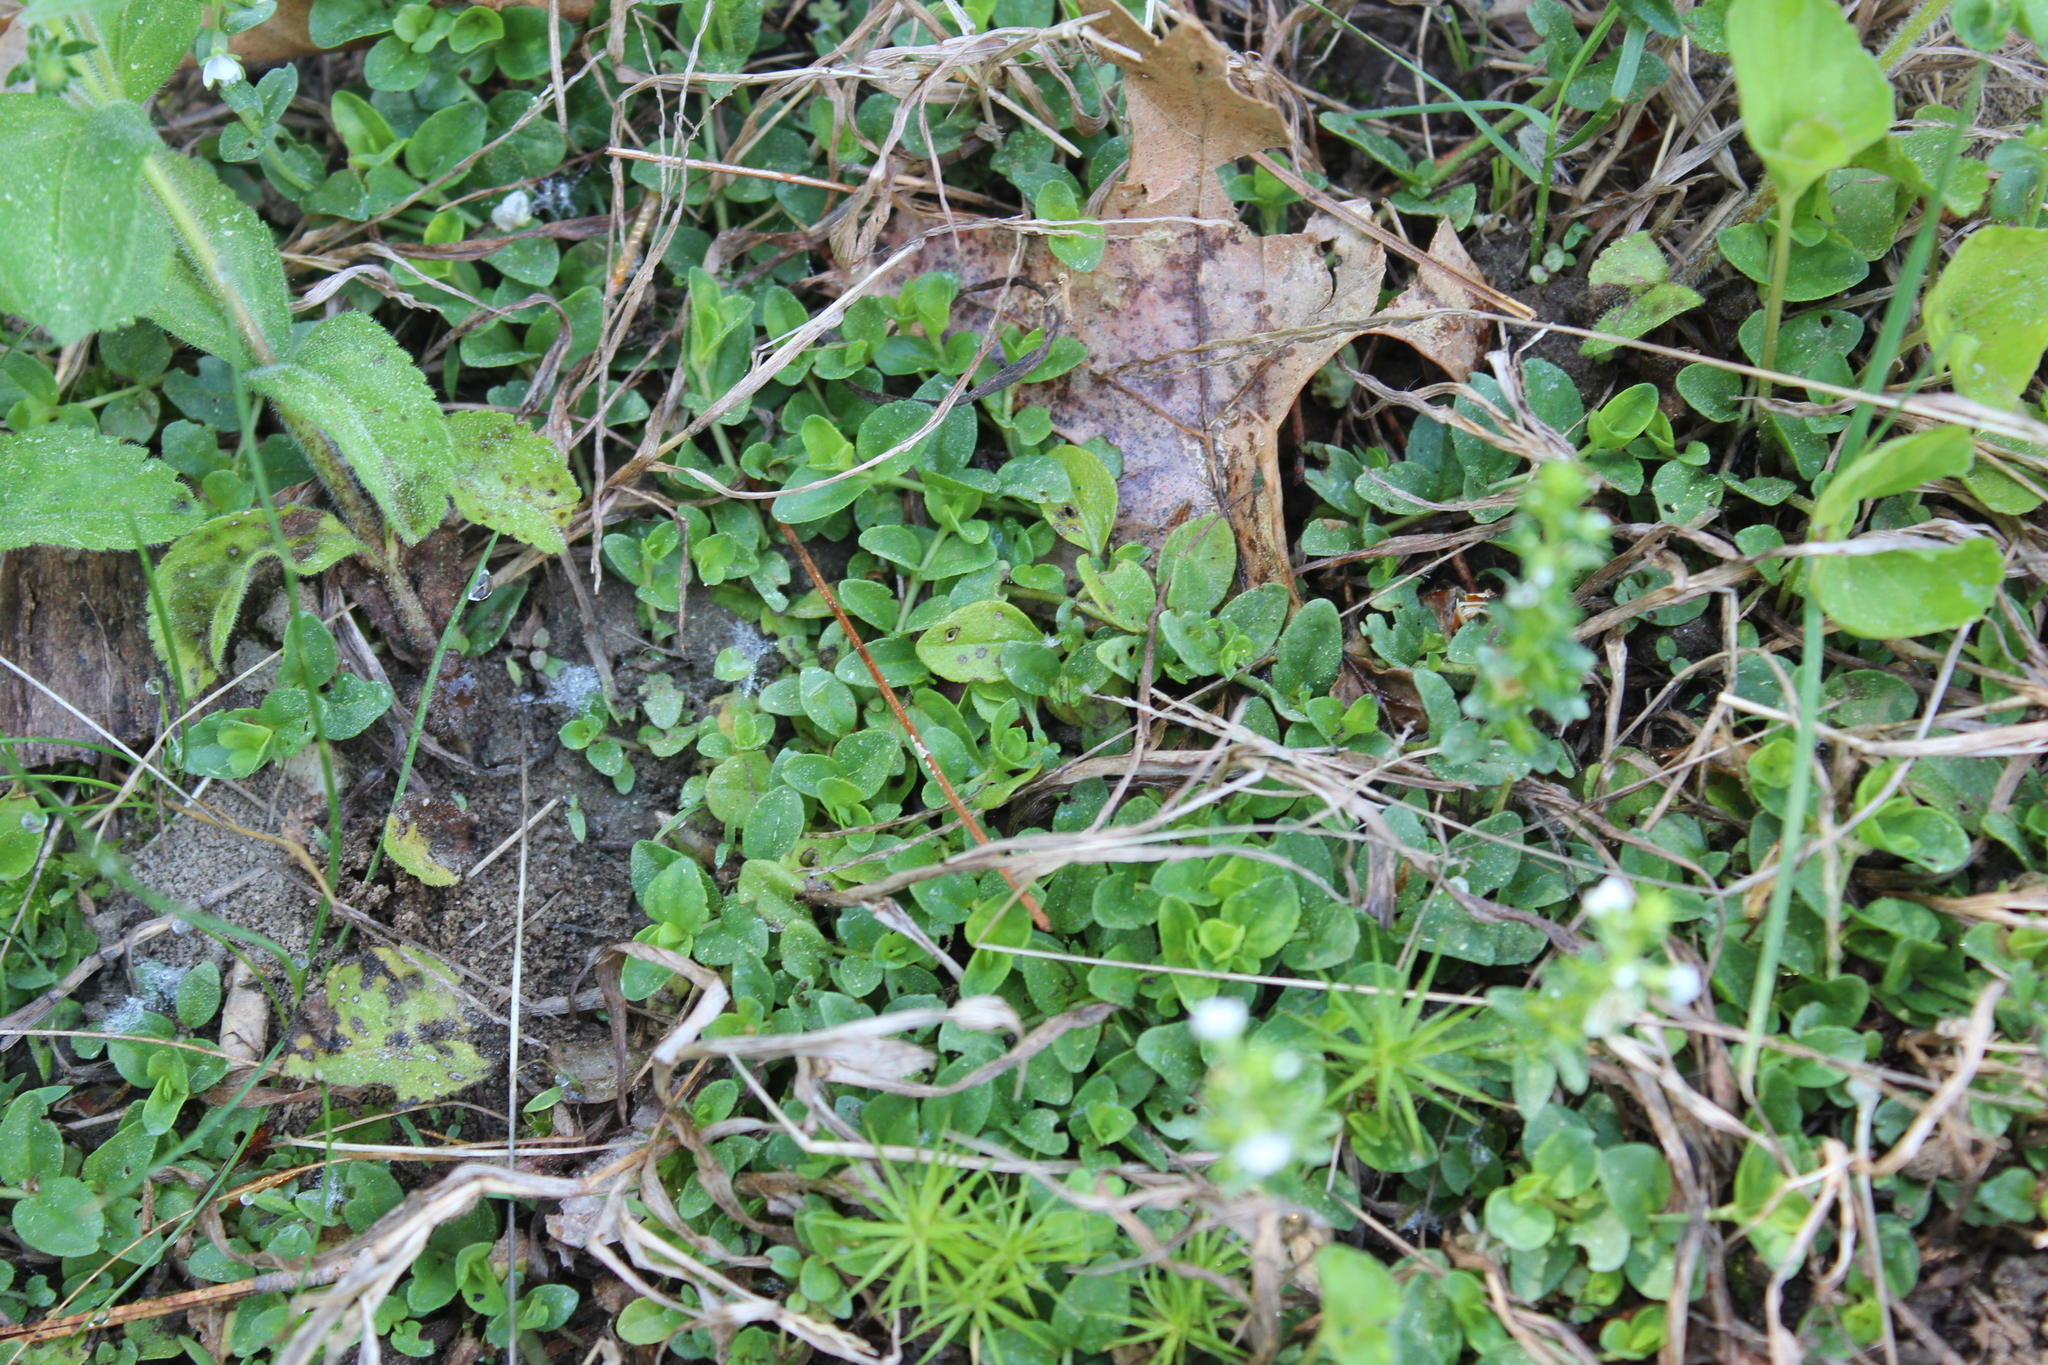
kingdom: Plantae
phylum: Tracheophyta
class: Magnoliopsida
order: Lamiales
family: Plantaginaceae
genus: Veronica
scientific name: Veronica serpyllifolia
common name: Thyme-leaved speedwell
